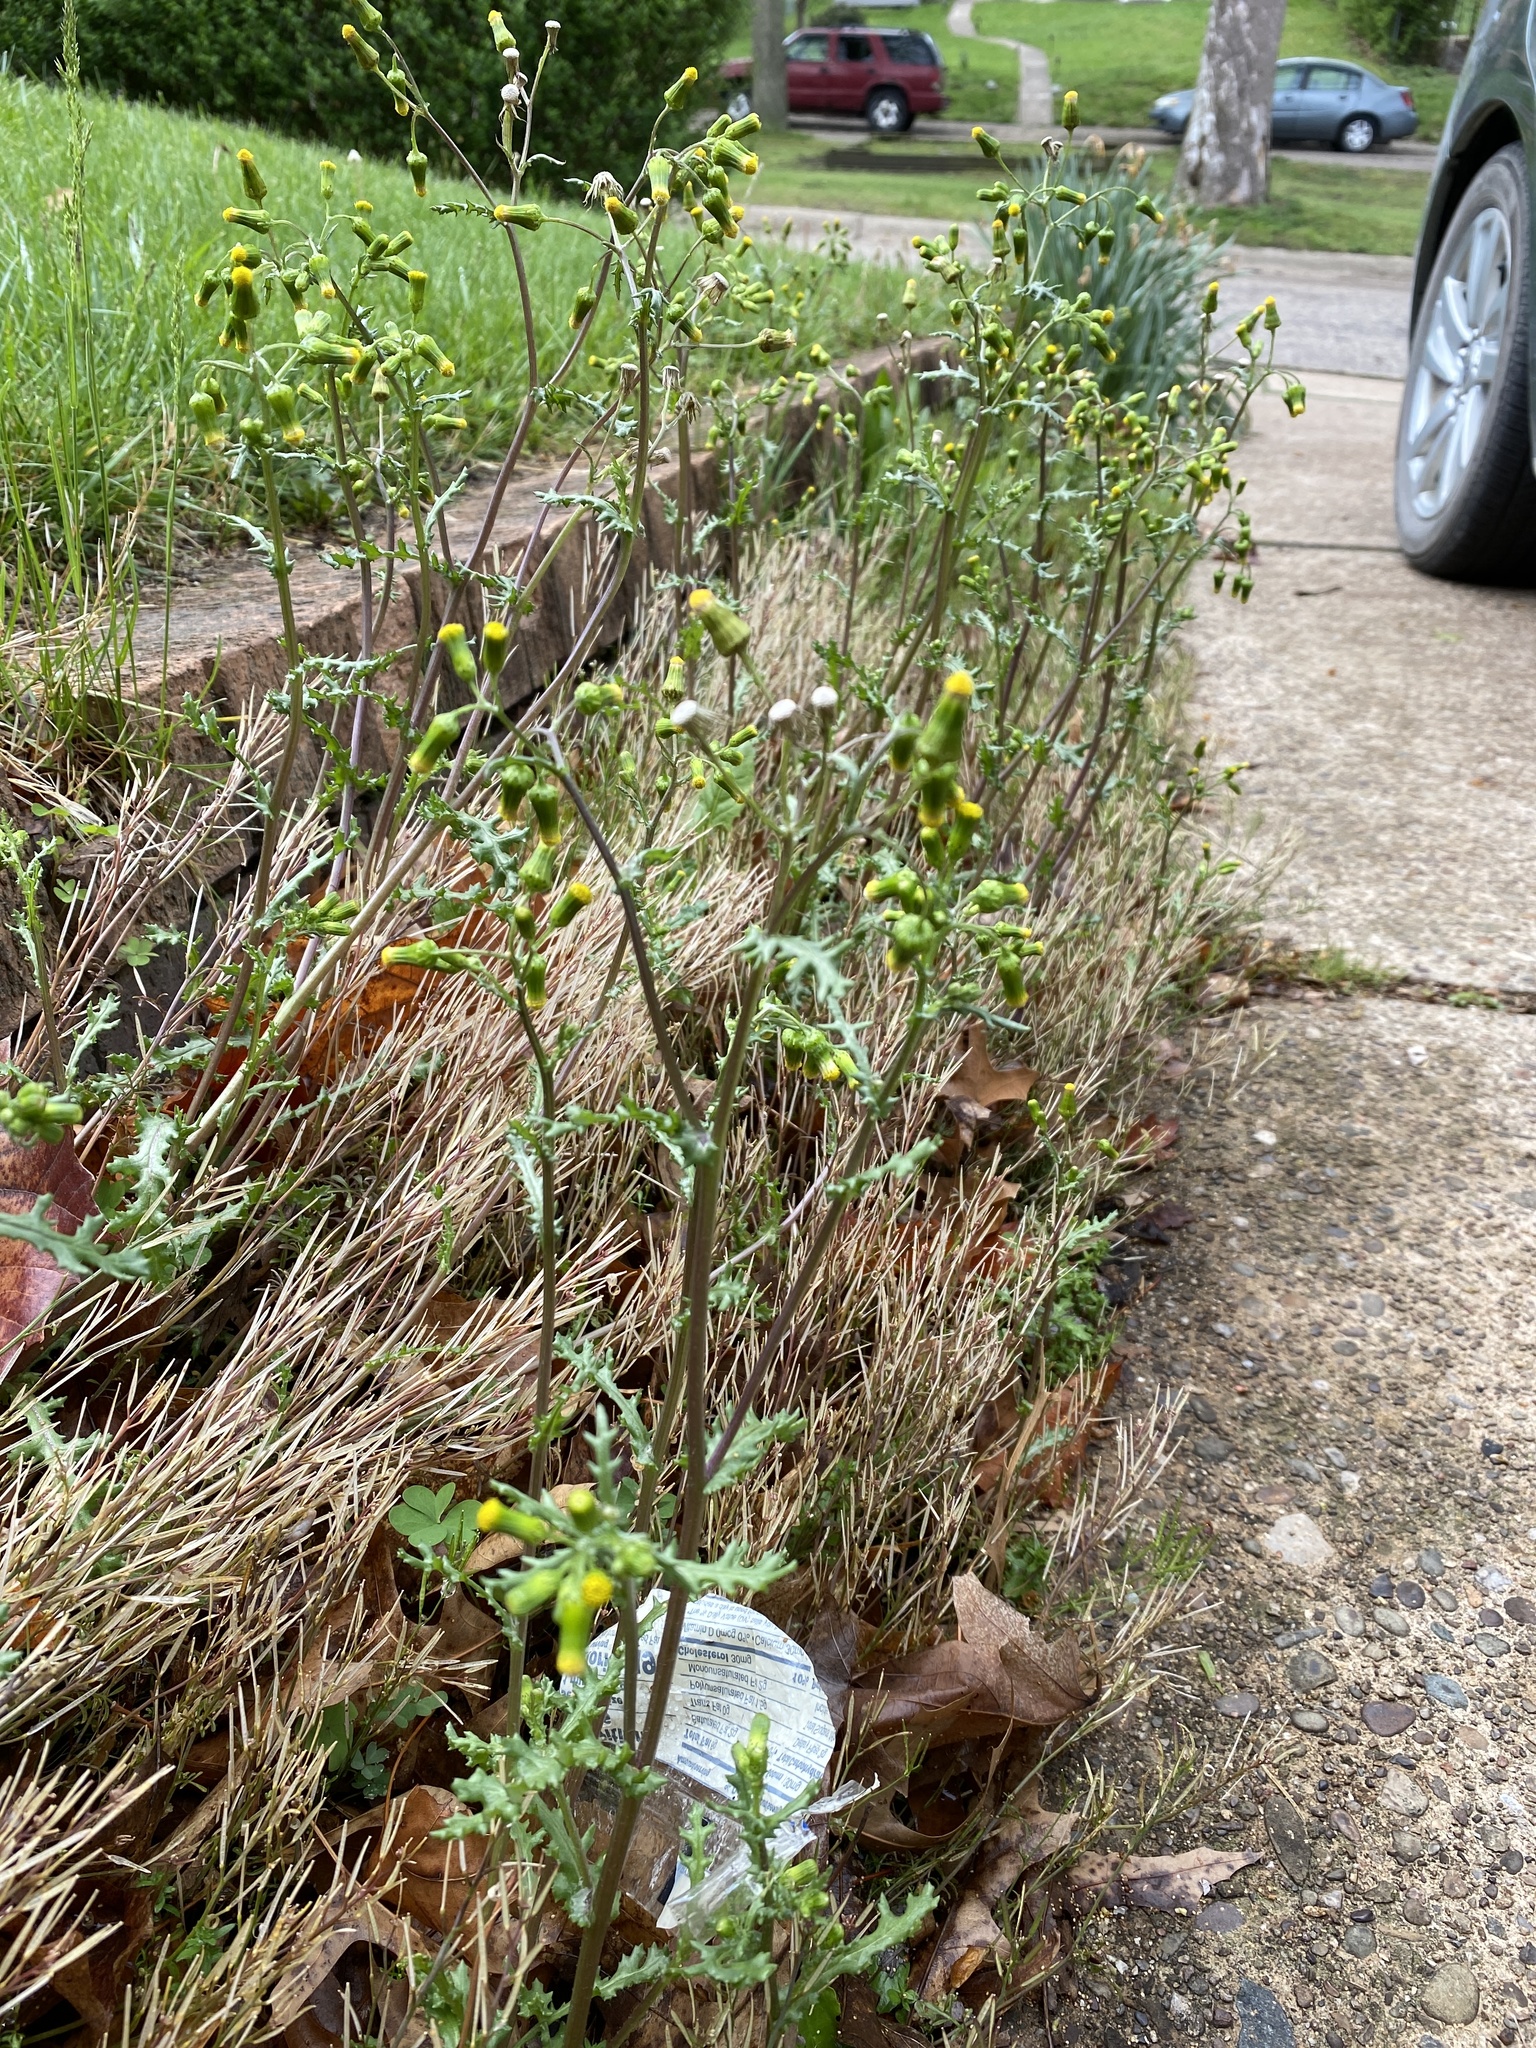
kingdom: Plantae
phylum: Tracheophyta
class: Magnoliopsida
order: Asterales
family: Asteraceae
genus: Senecio
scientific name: Senecio vulgaris
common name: Old-man-in-the-spring
